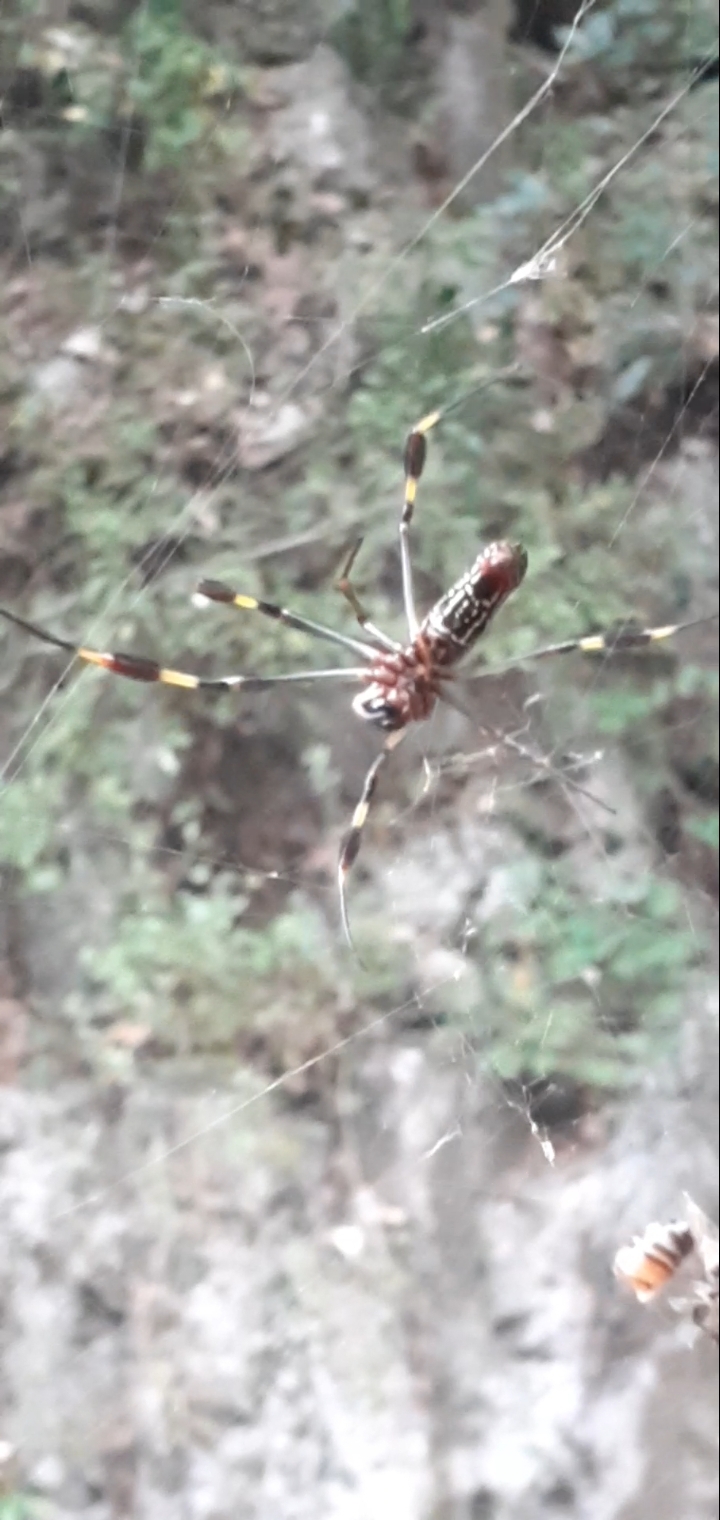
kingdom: Animalia
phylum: Arthropoda
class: Arachnida
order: Araneae
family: Araneidae
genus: Trichonephila
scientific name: Trichonephila clavipes
